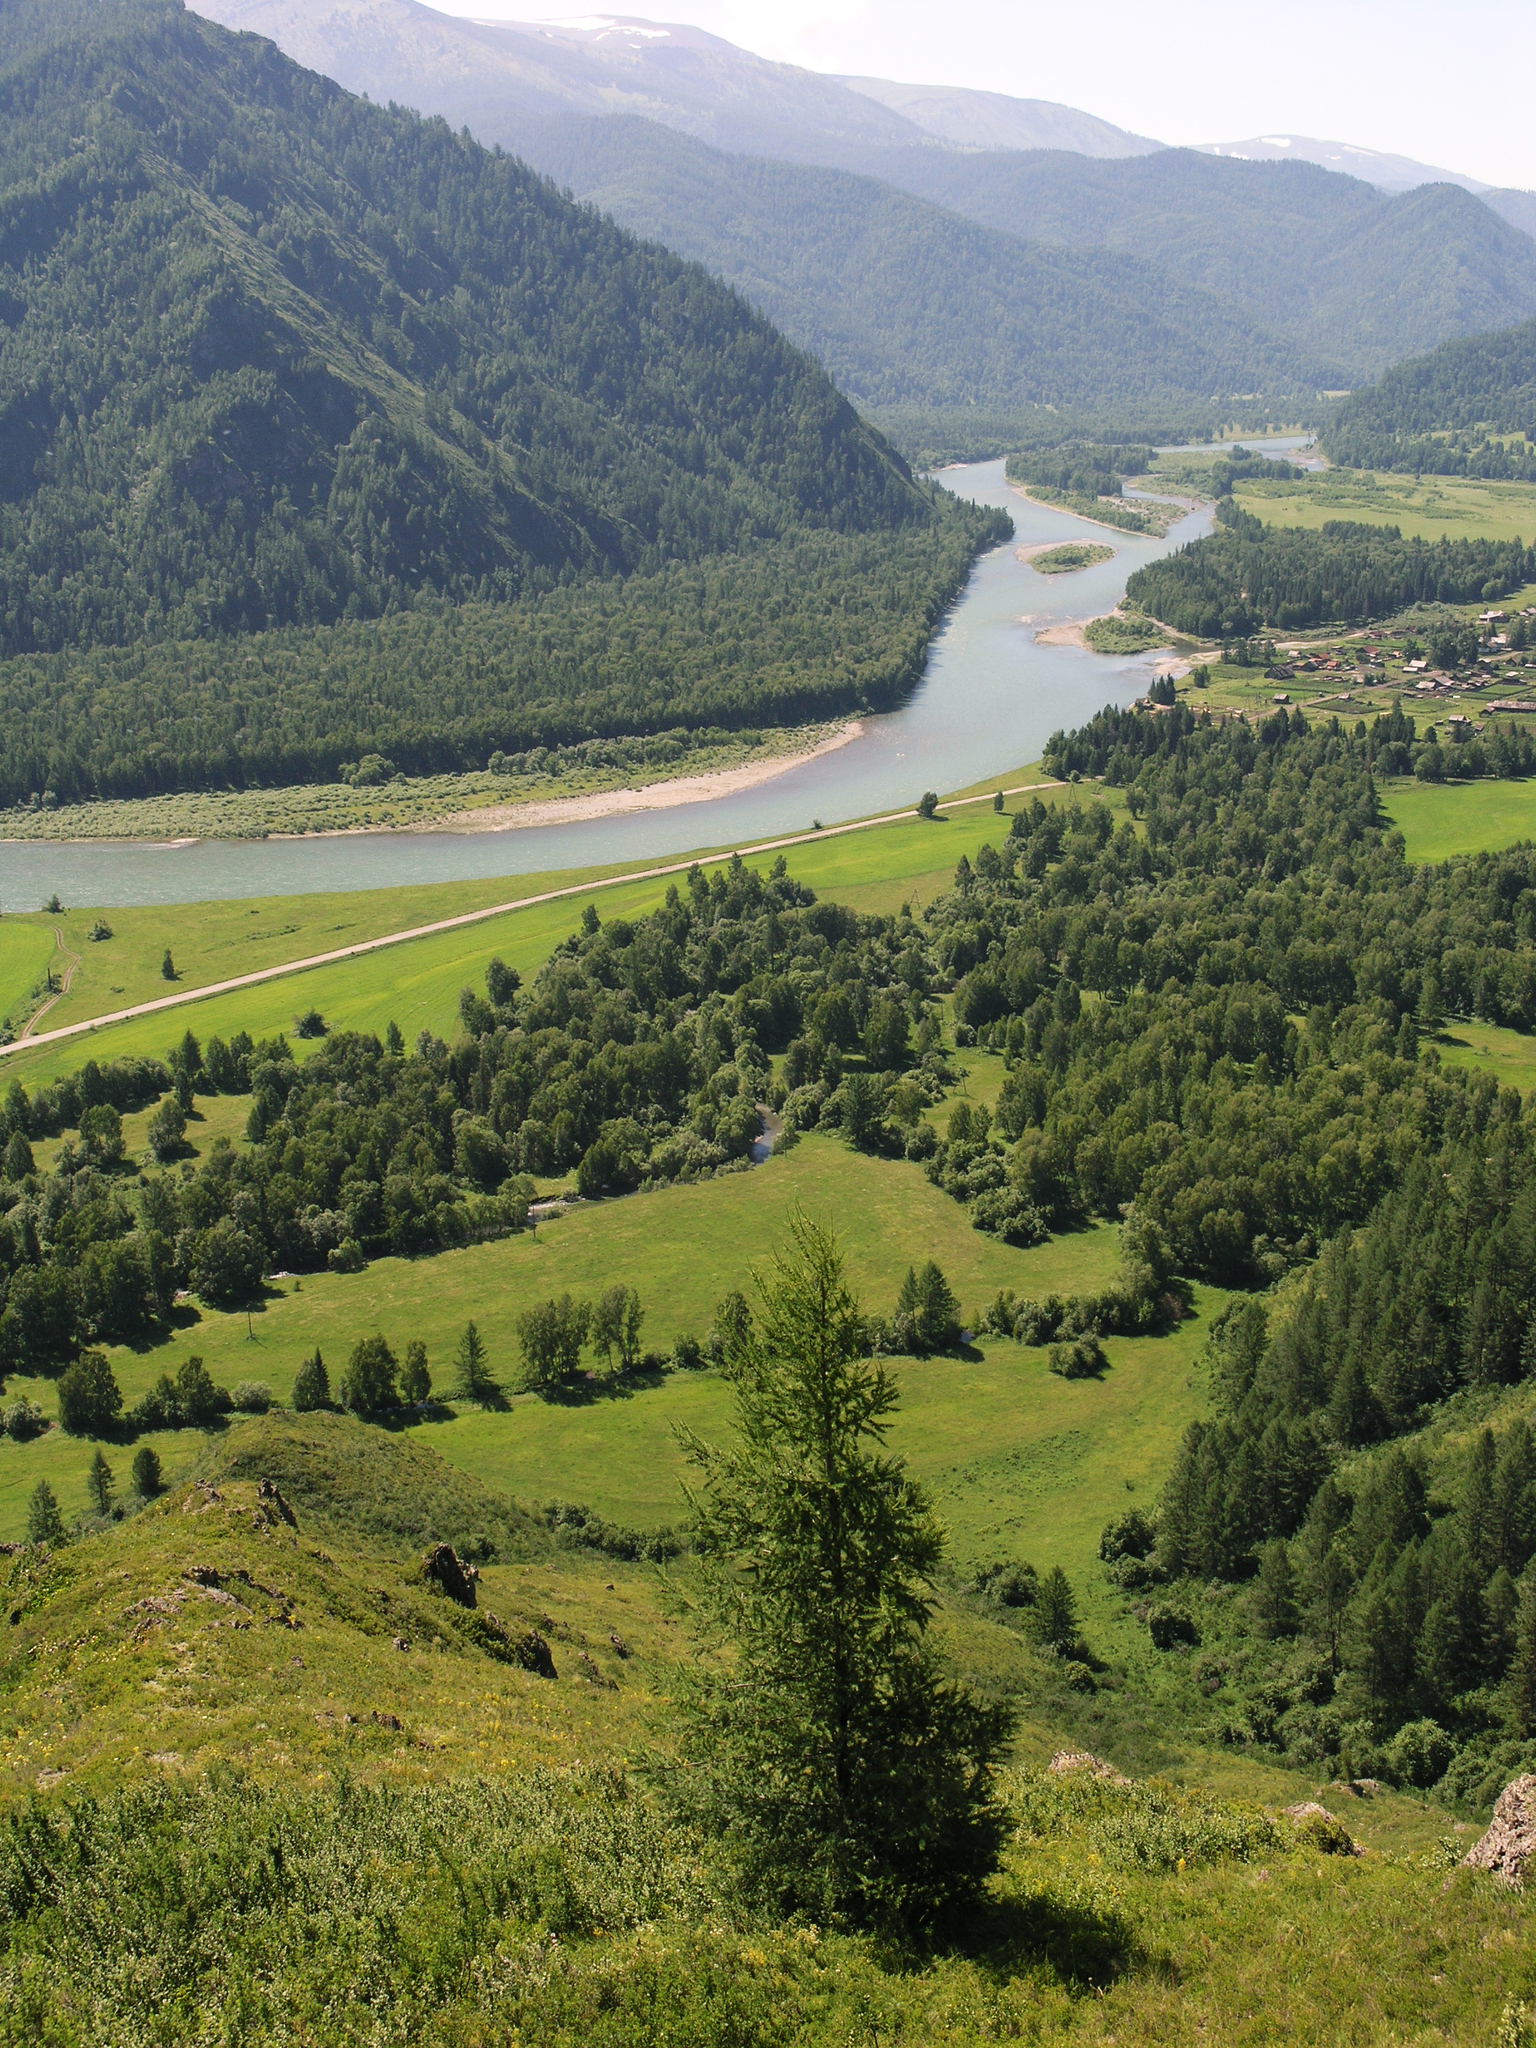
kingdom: Plantae
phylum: Tracheophyta
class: Pinopsida
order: Pinales
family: Pinaceae
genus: Larix
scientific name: Larix sibirica
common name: Siberian larch
